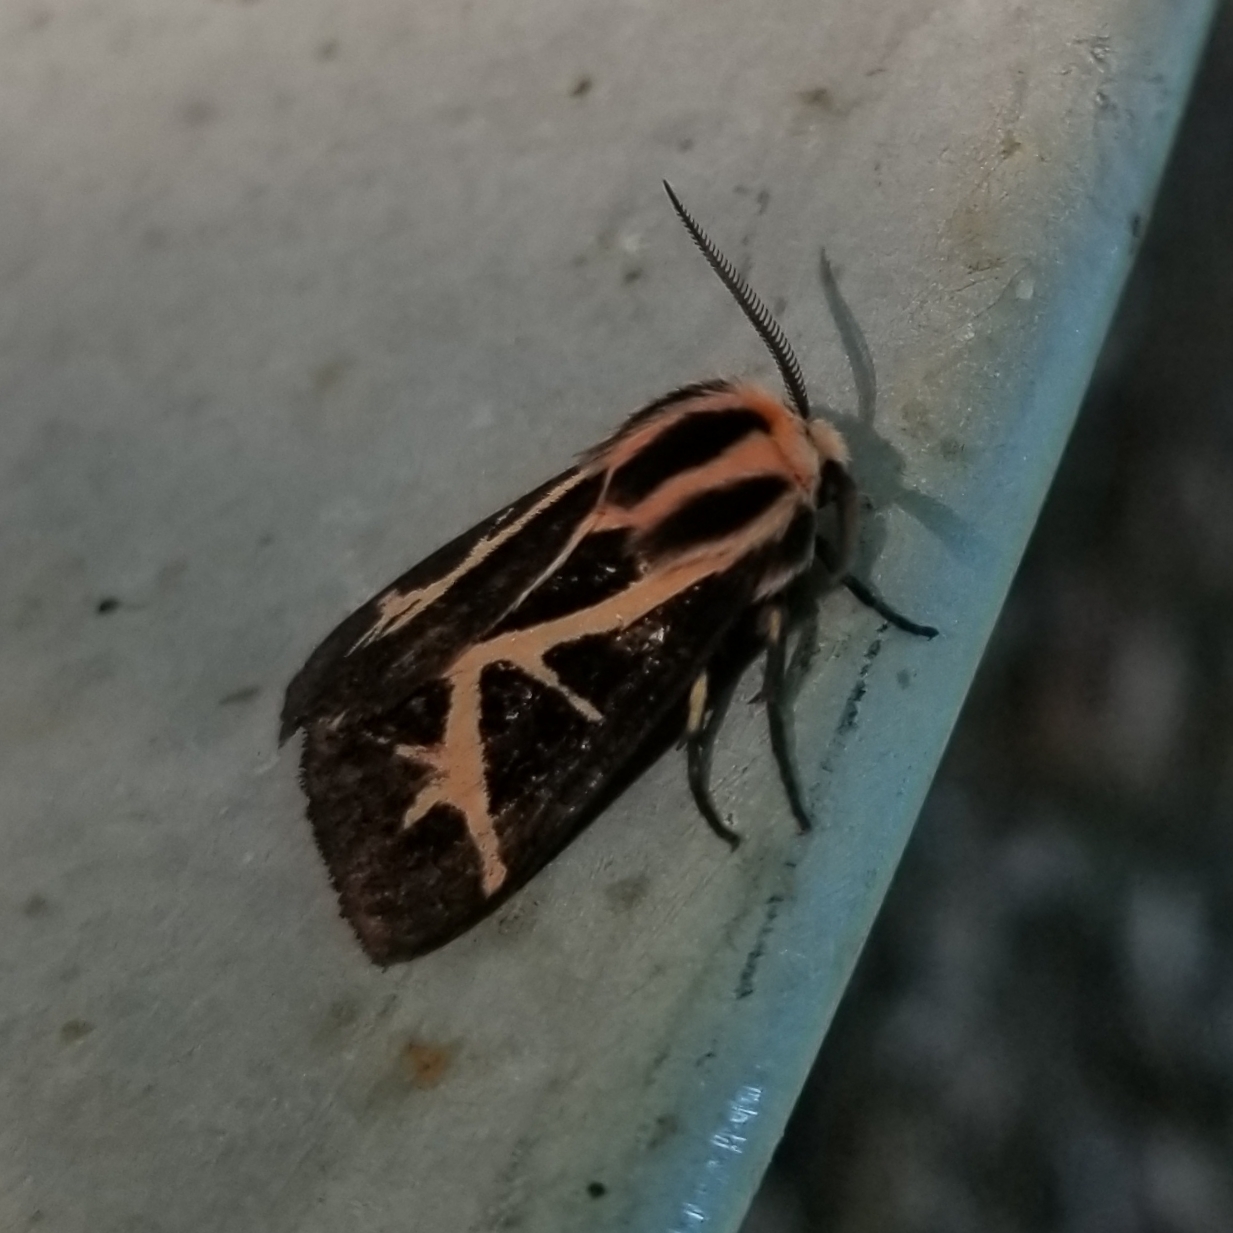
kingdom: Animalia
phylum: Arthropoda
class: Insecta
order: Lepidoptera
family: Erebidae
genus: Apantesis
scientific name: Apantesis
